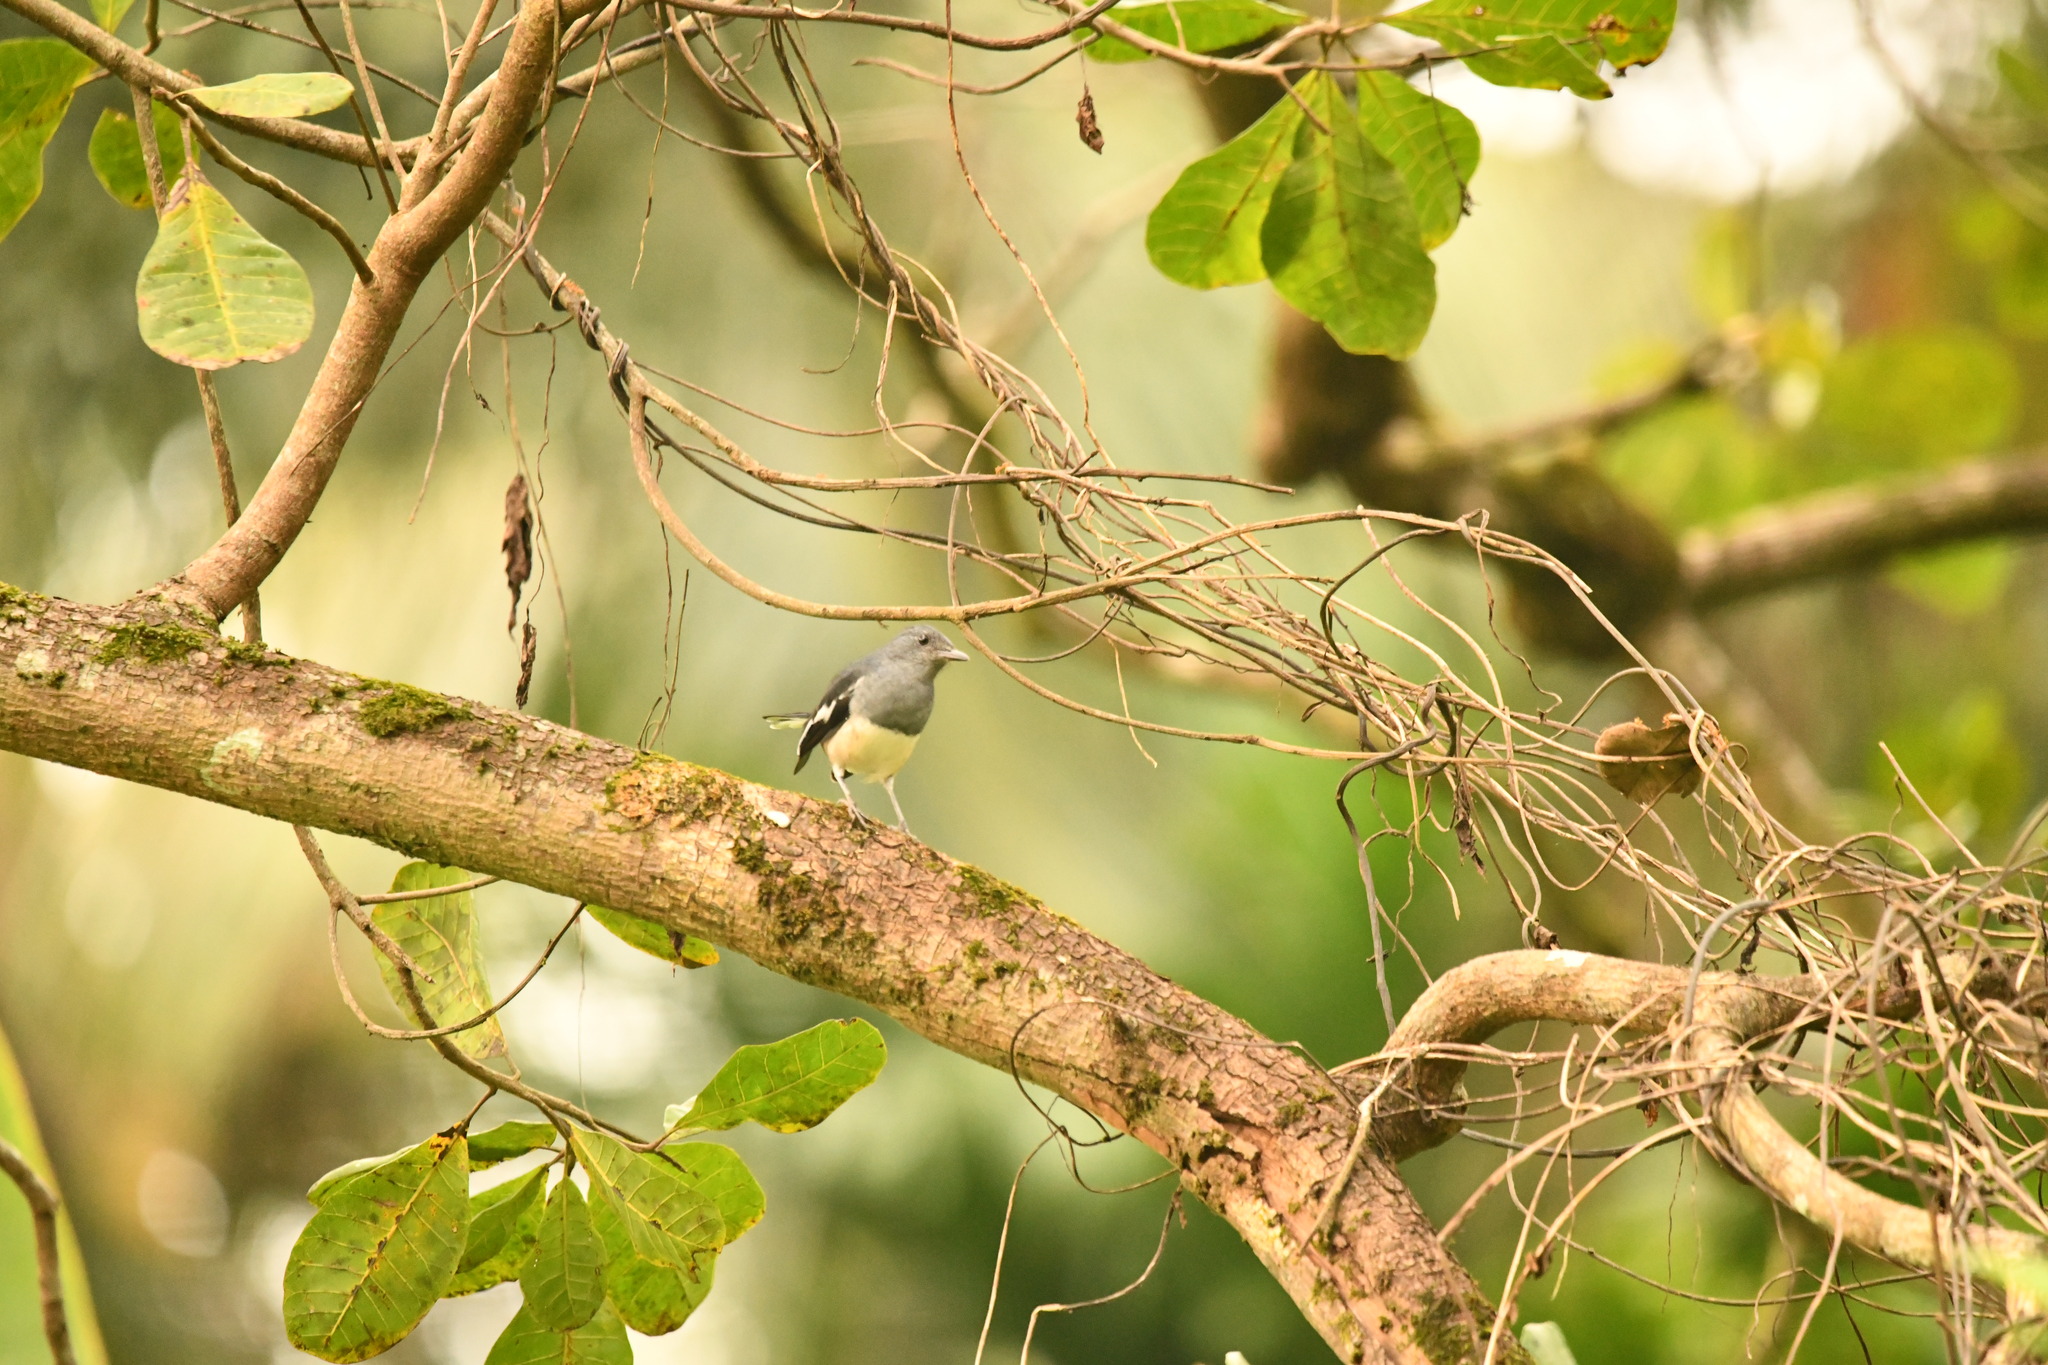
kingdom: Animalia
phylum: Chordata
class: Aves
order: Passeriformes
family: Muscicapidae
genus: Copsychus
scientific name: Copsychus saularis
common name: Oriental magpie-robin
